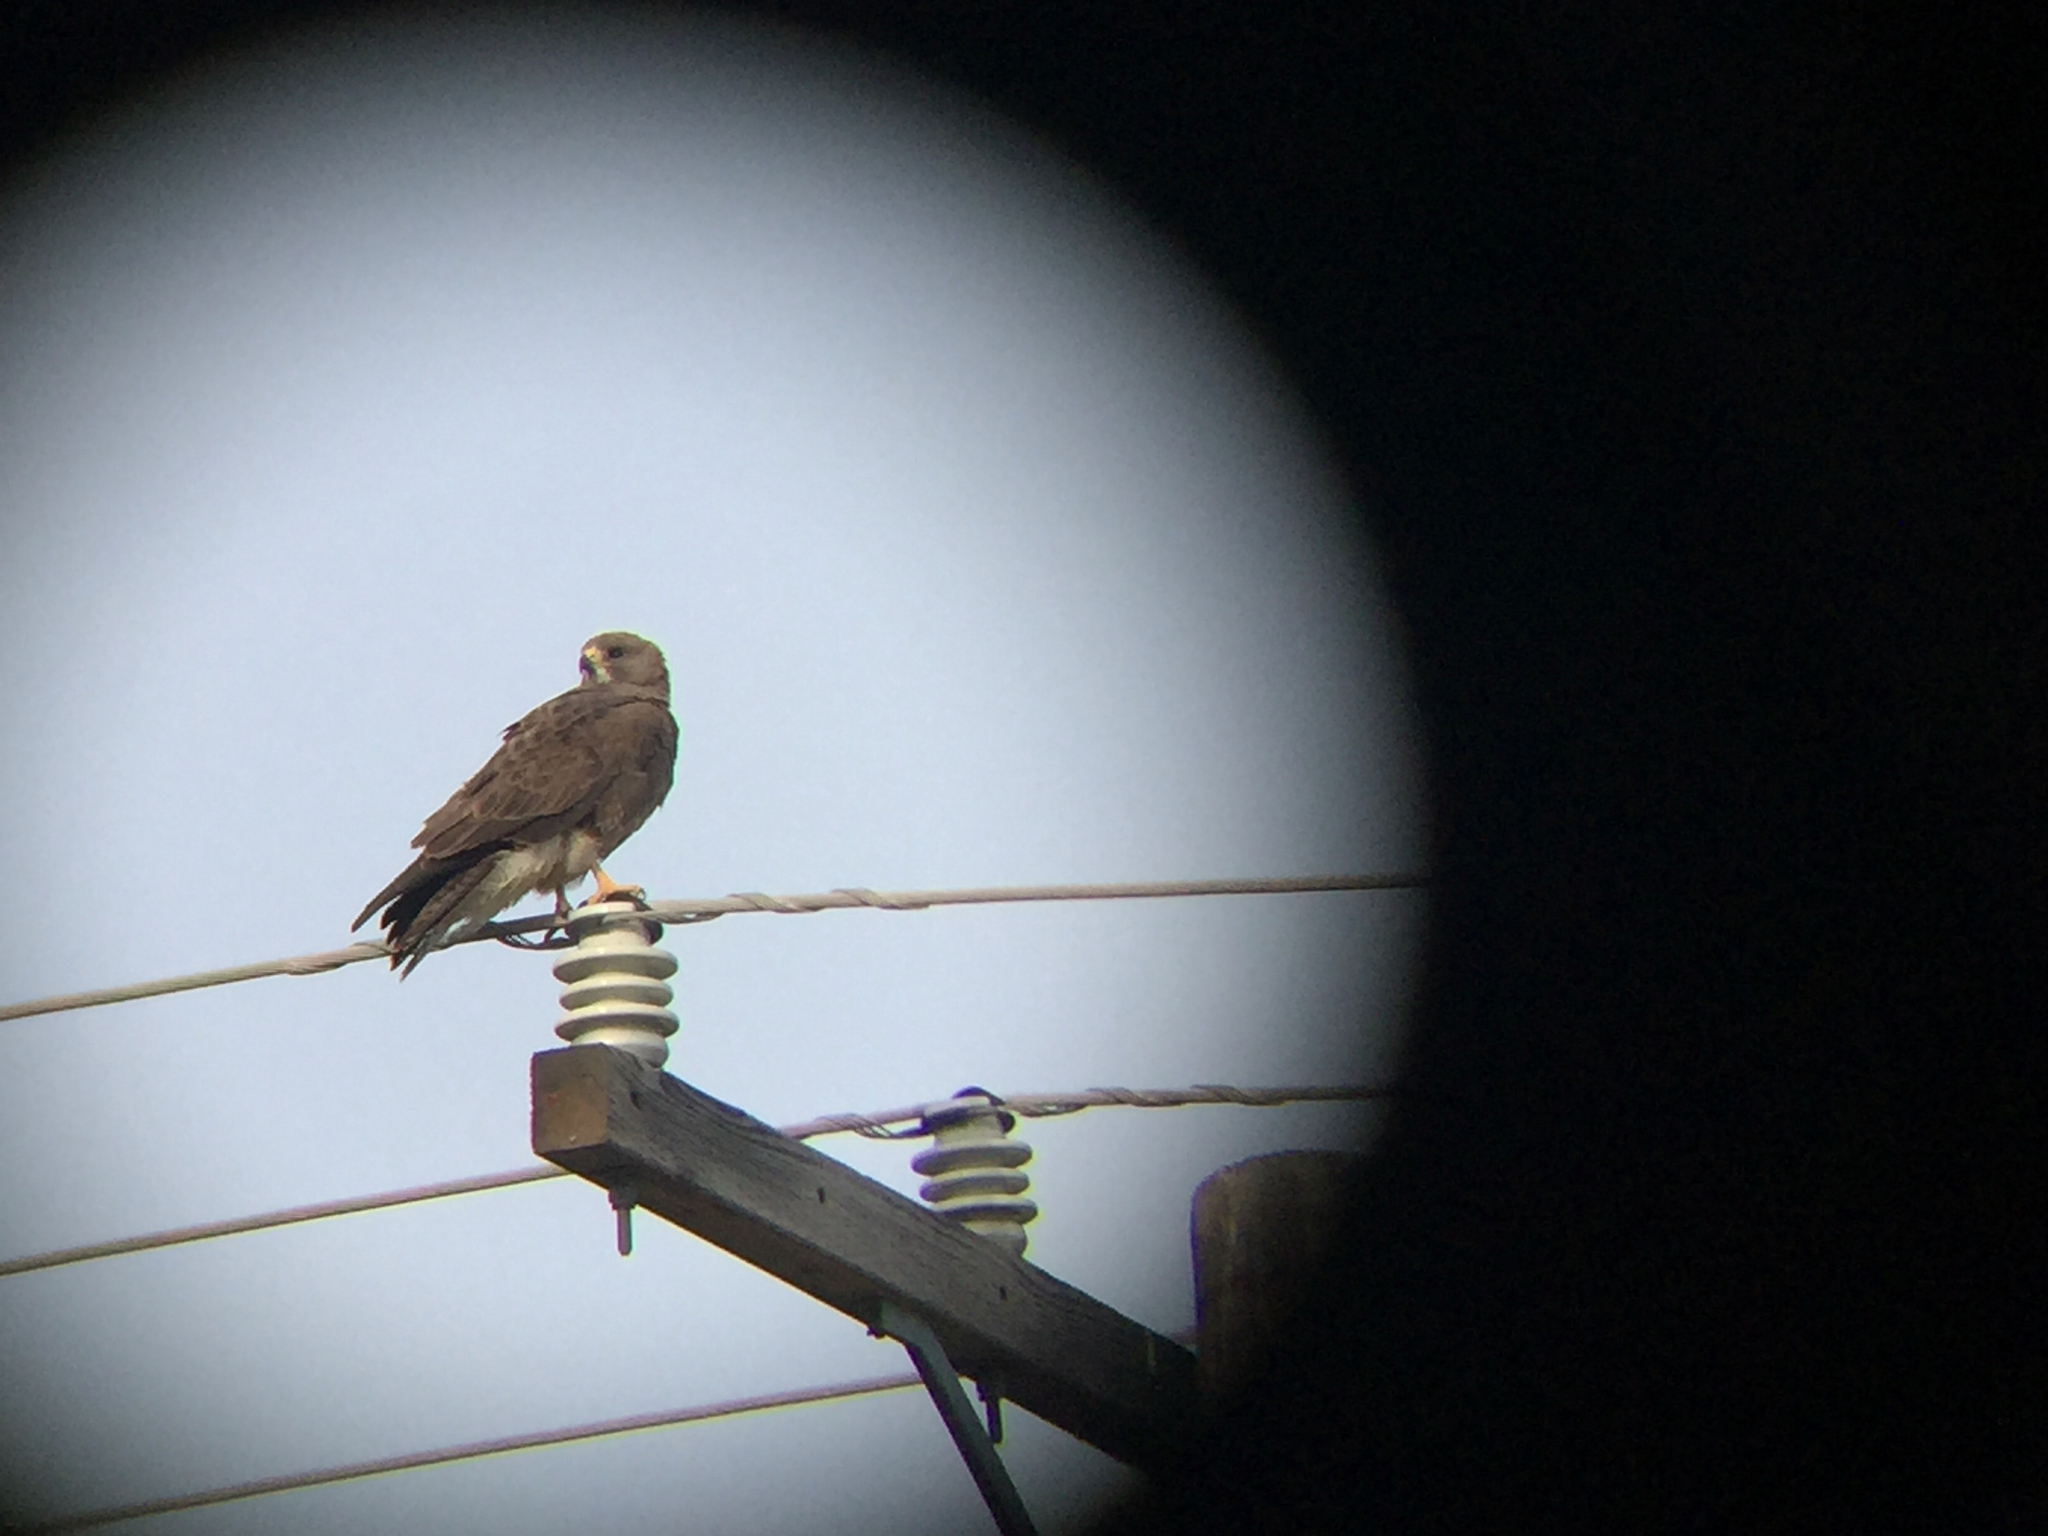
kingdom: Animalia
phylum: Chordata
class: Aves
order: Accipitriformes
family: Accipitridae
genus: Buteo
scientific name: Buteo swainsoni
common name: Swainson's hawk
